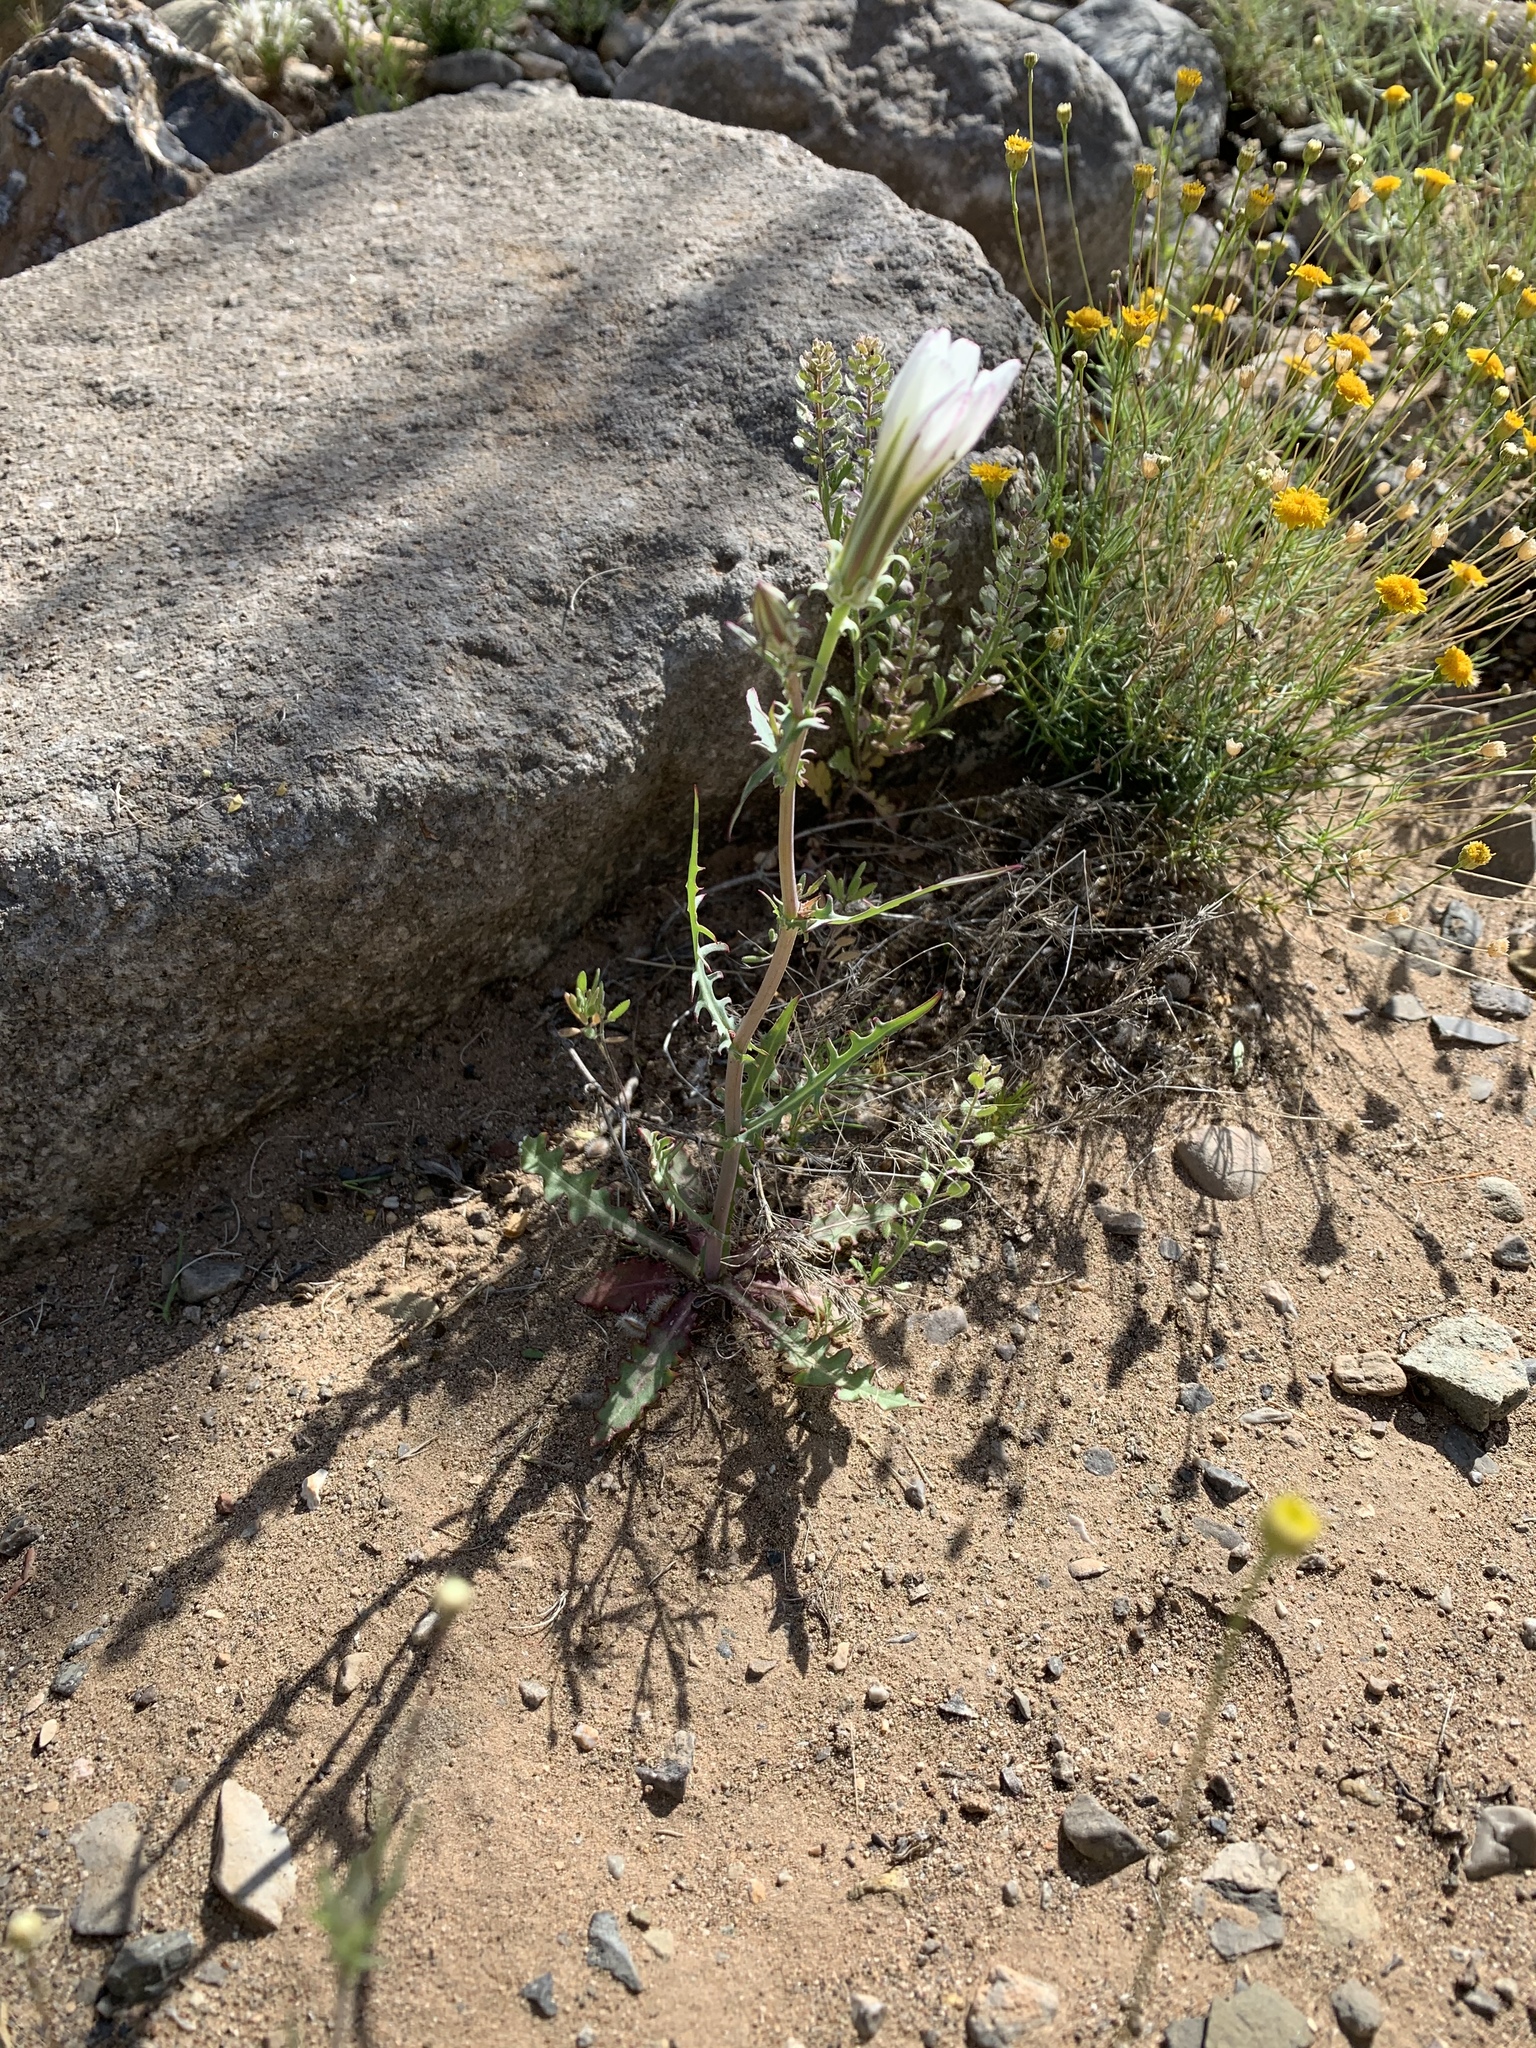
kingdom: Plantae
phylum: Tracheophyta
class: Magnoliopsida
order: Asterales
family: Asteraceae
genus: Rafinesquia
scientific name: Rafinesquia neomexicana
